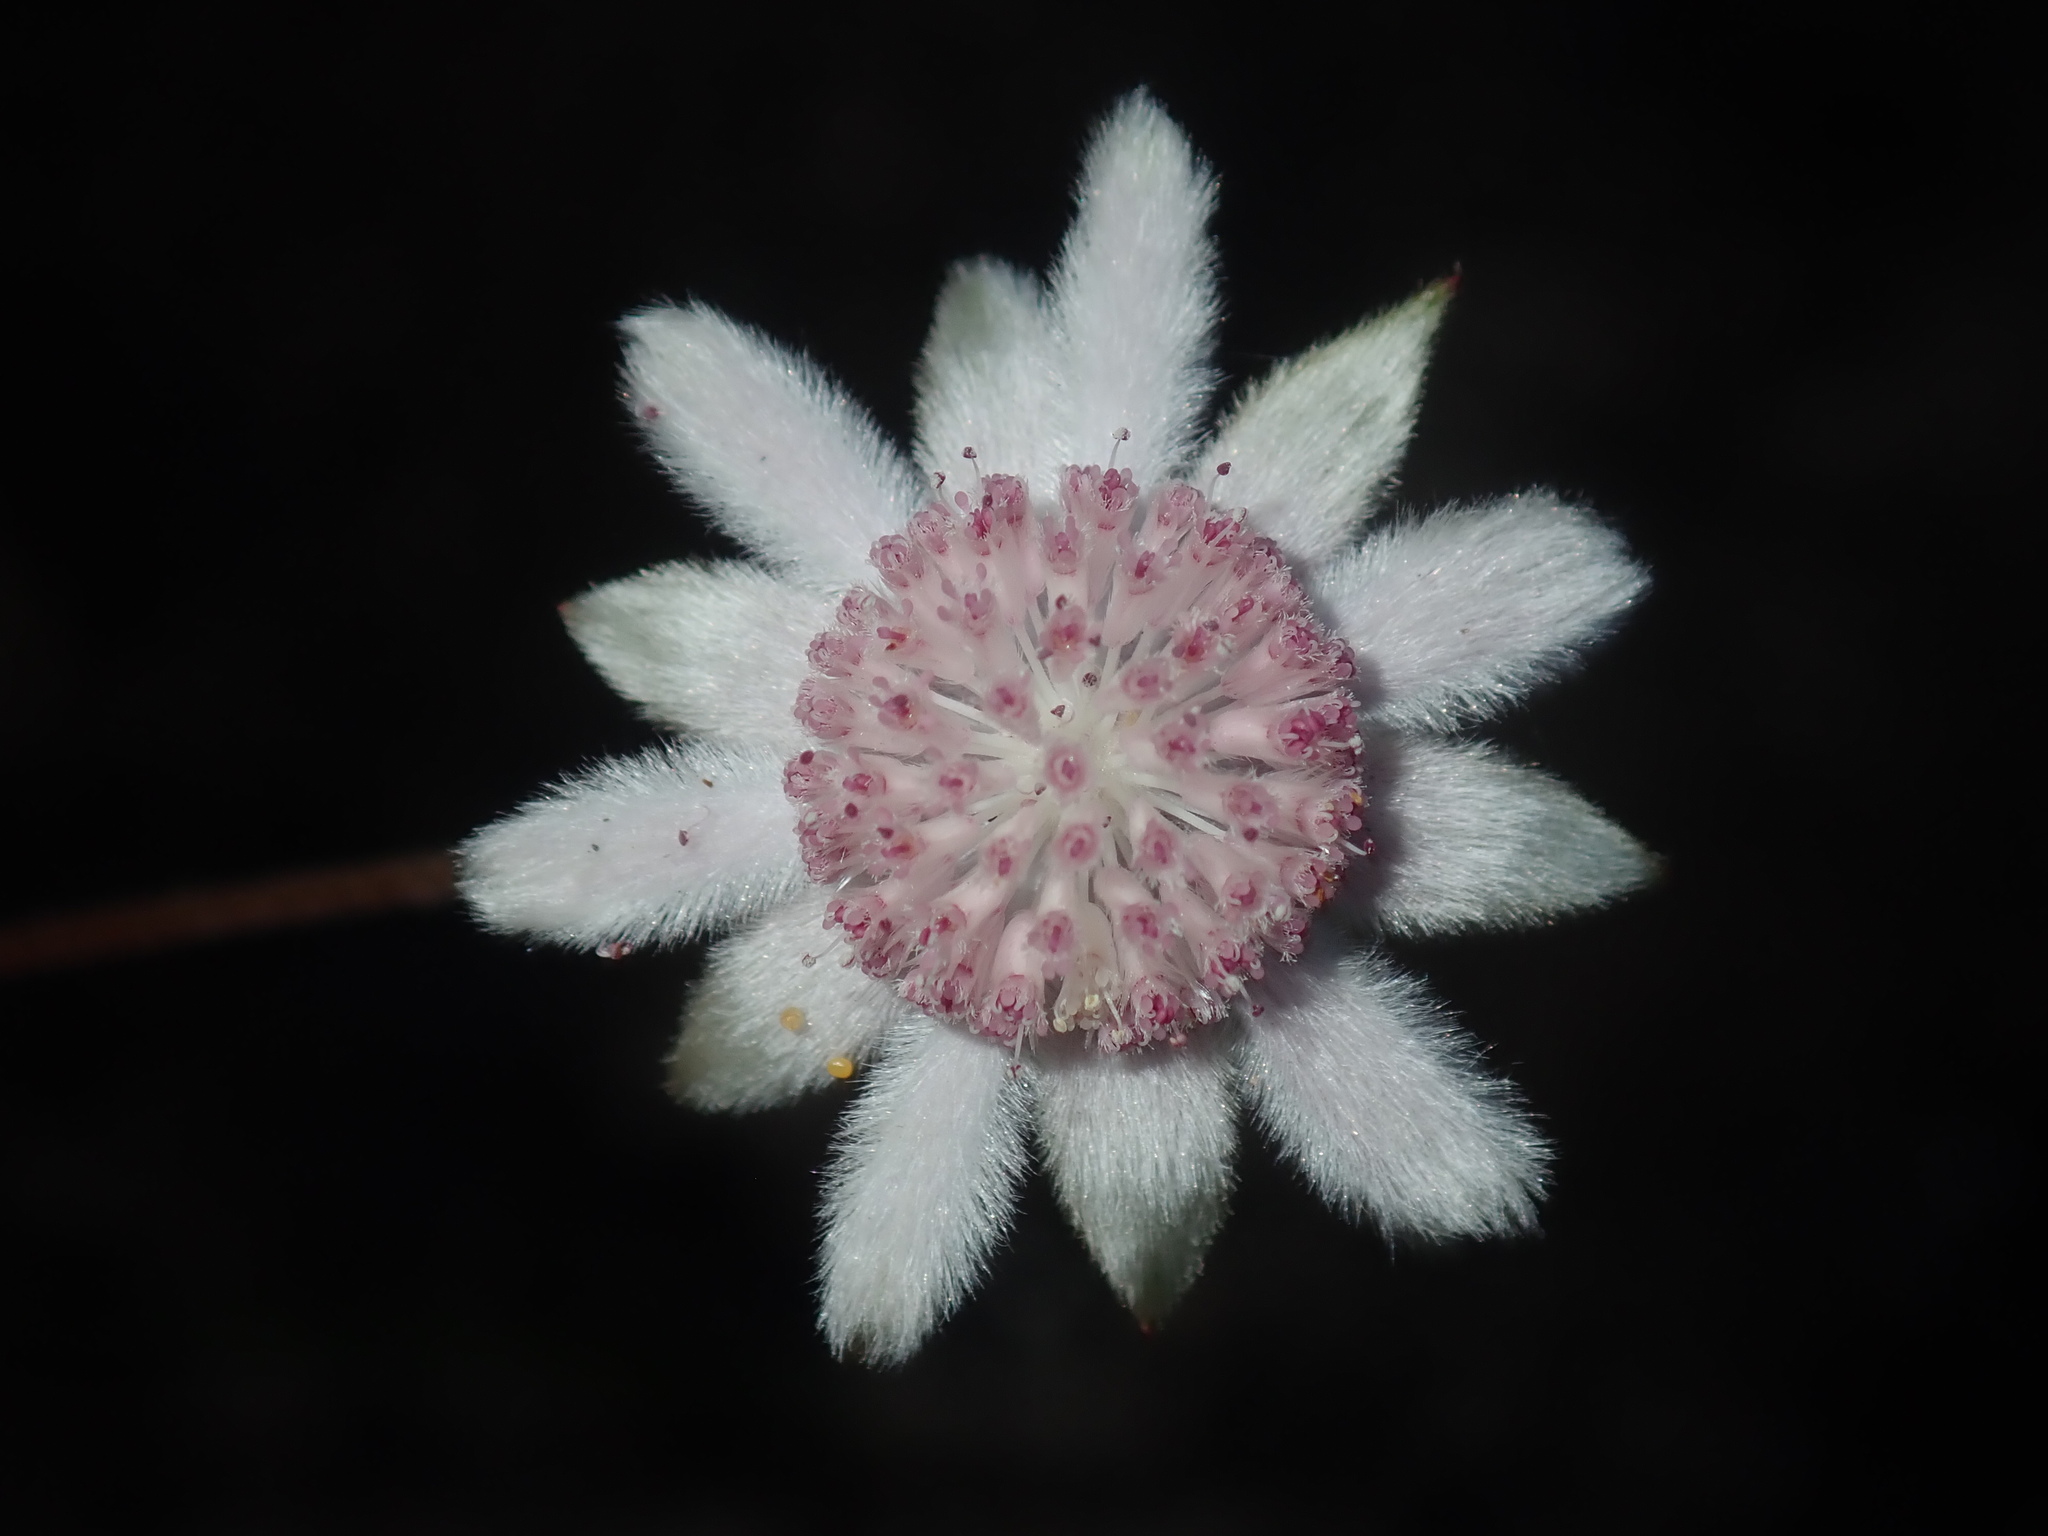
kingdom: Plantae
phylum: Tracheophyta
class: Magnoliopsida
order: Apiales
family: Apiaceae
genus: Actinotus
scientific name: Actinotus forsythii
